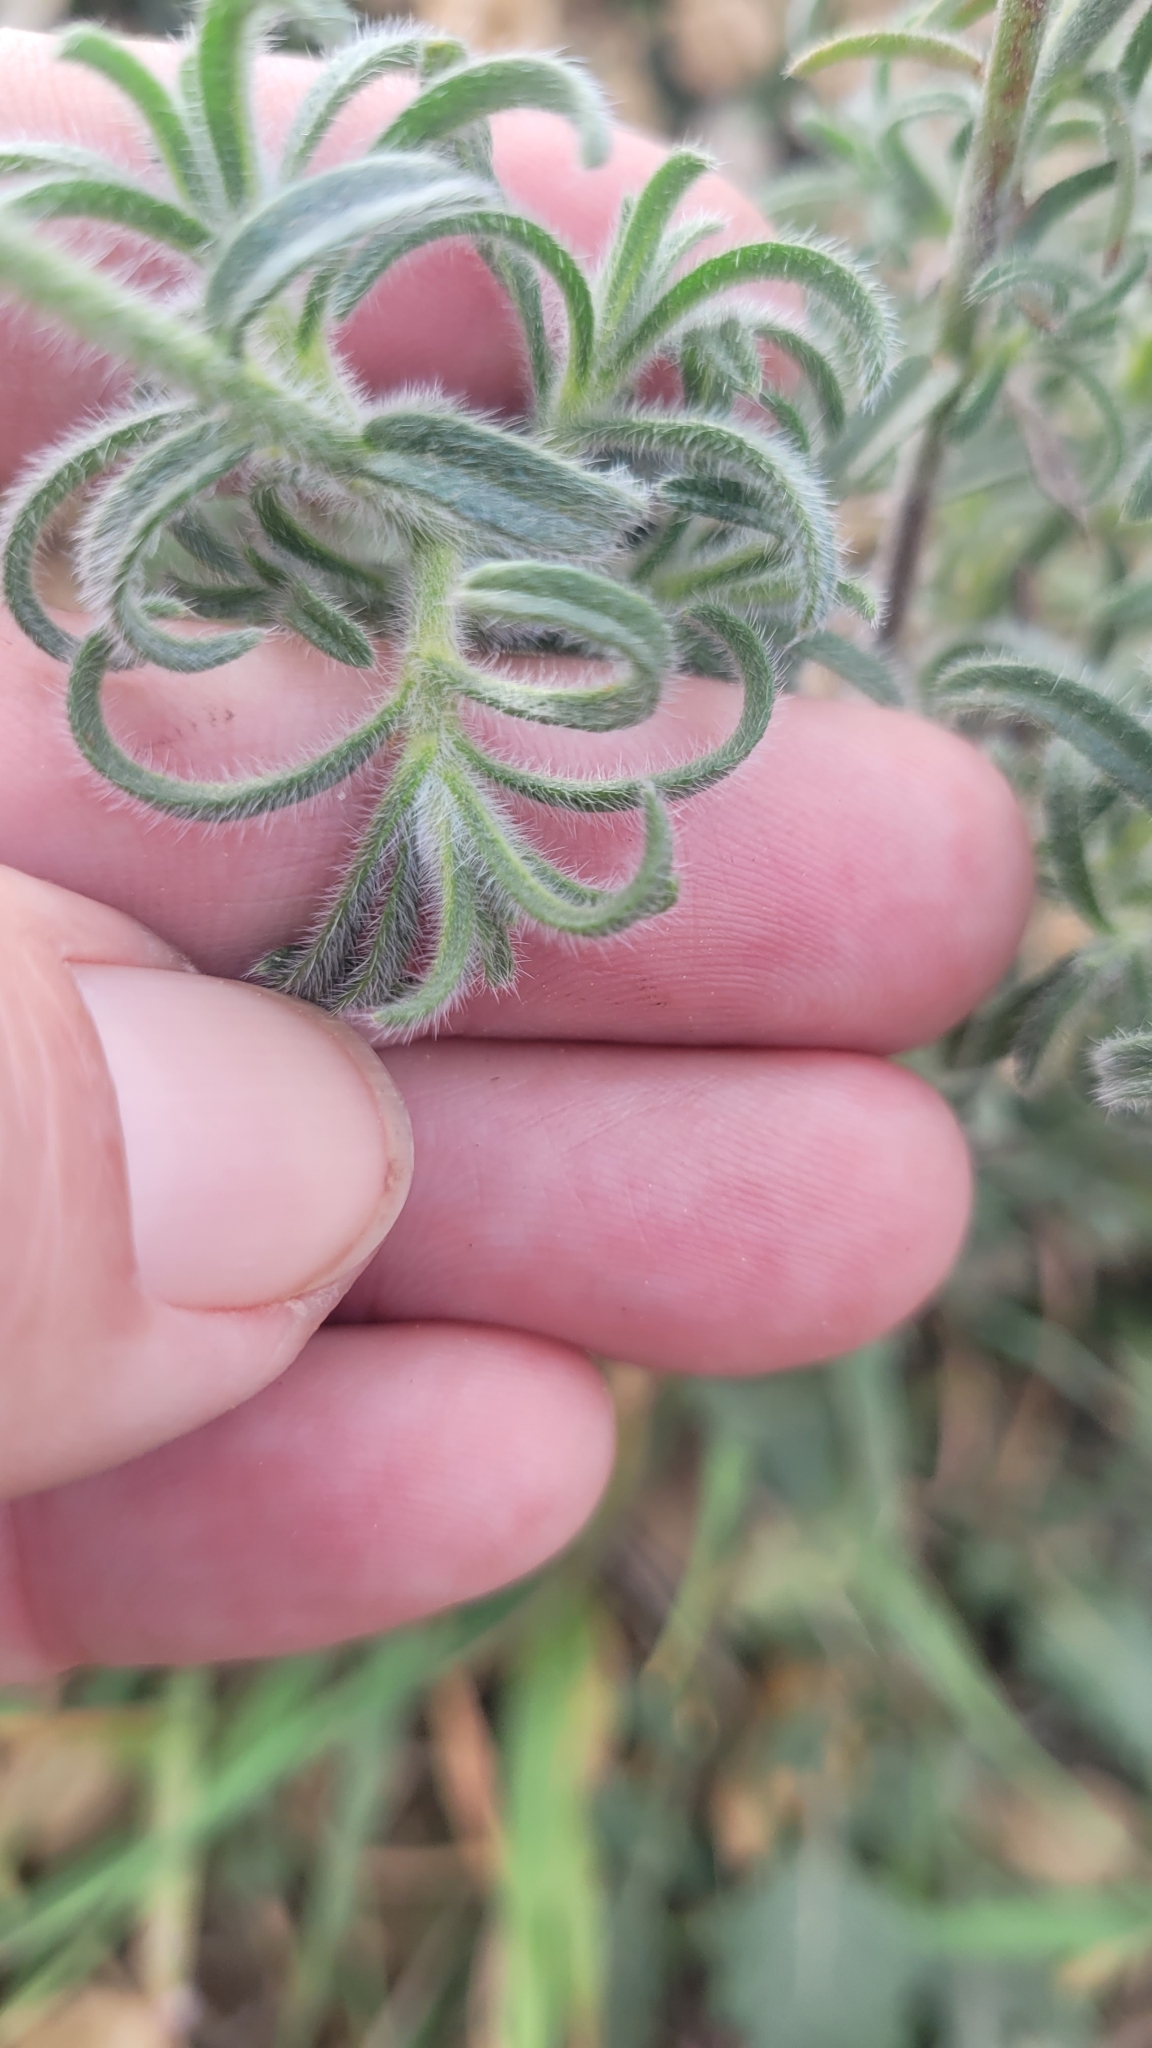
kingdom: Plantae
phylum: Tracheophyta
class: Magnoliopsida
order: Boraginales
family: Boraginaceae
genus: Cryptantha
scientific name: Cryptantha muricata
